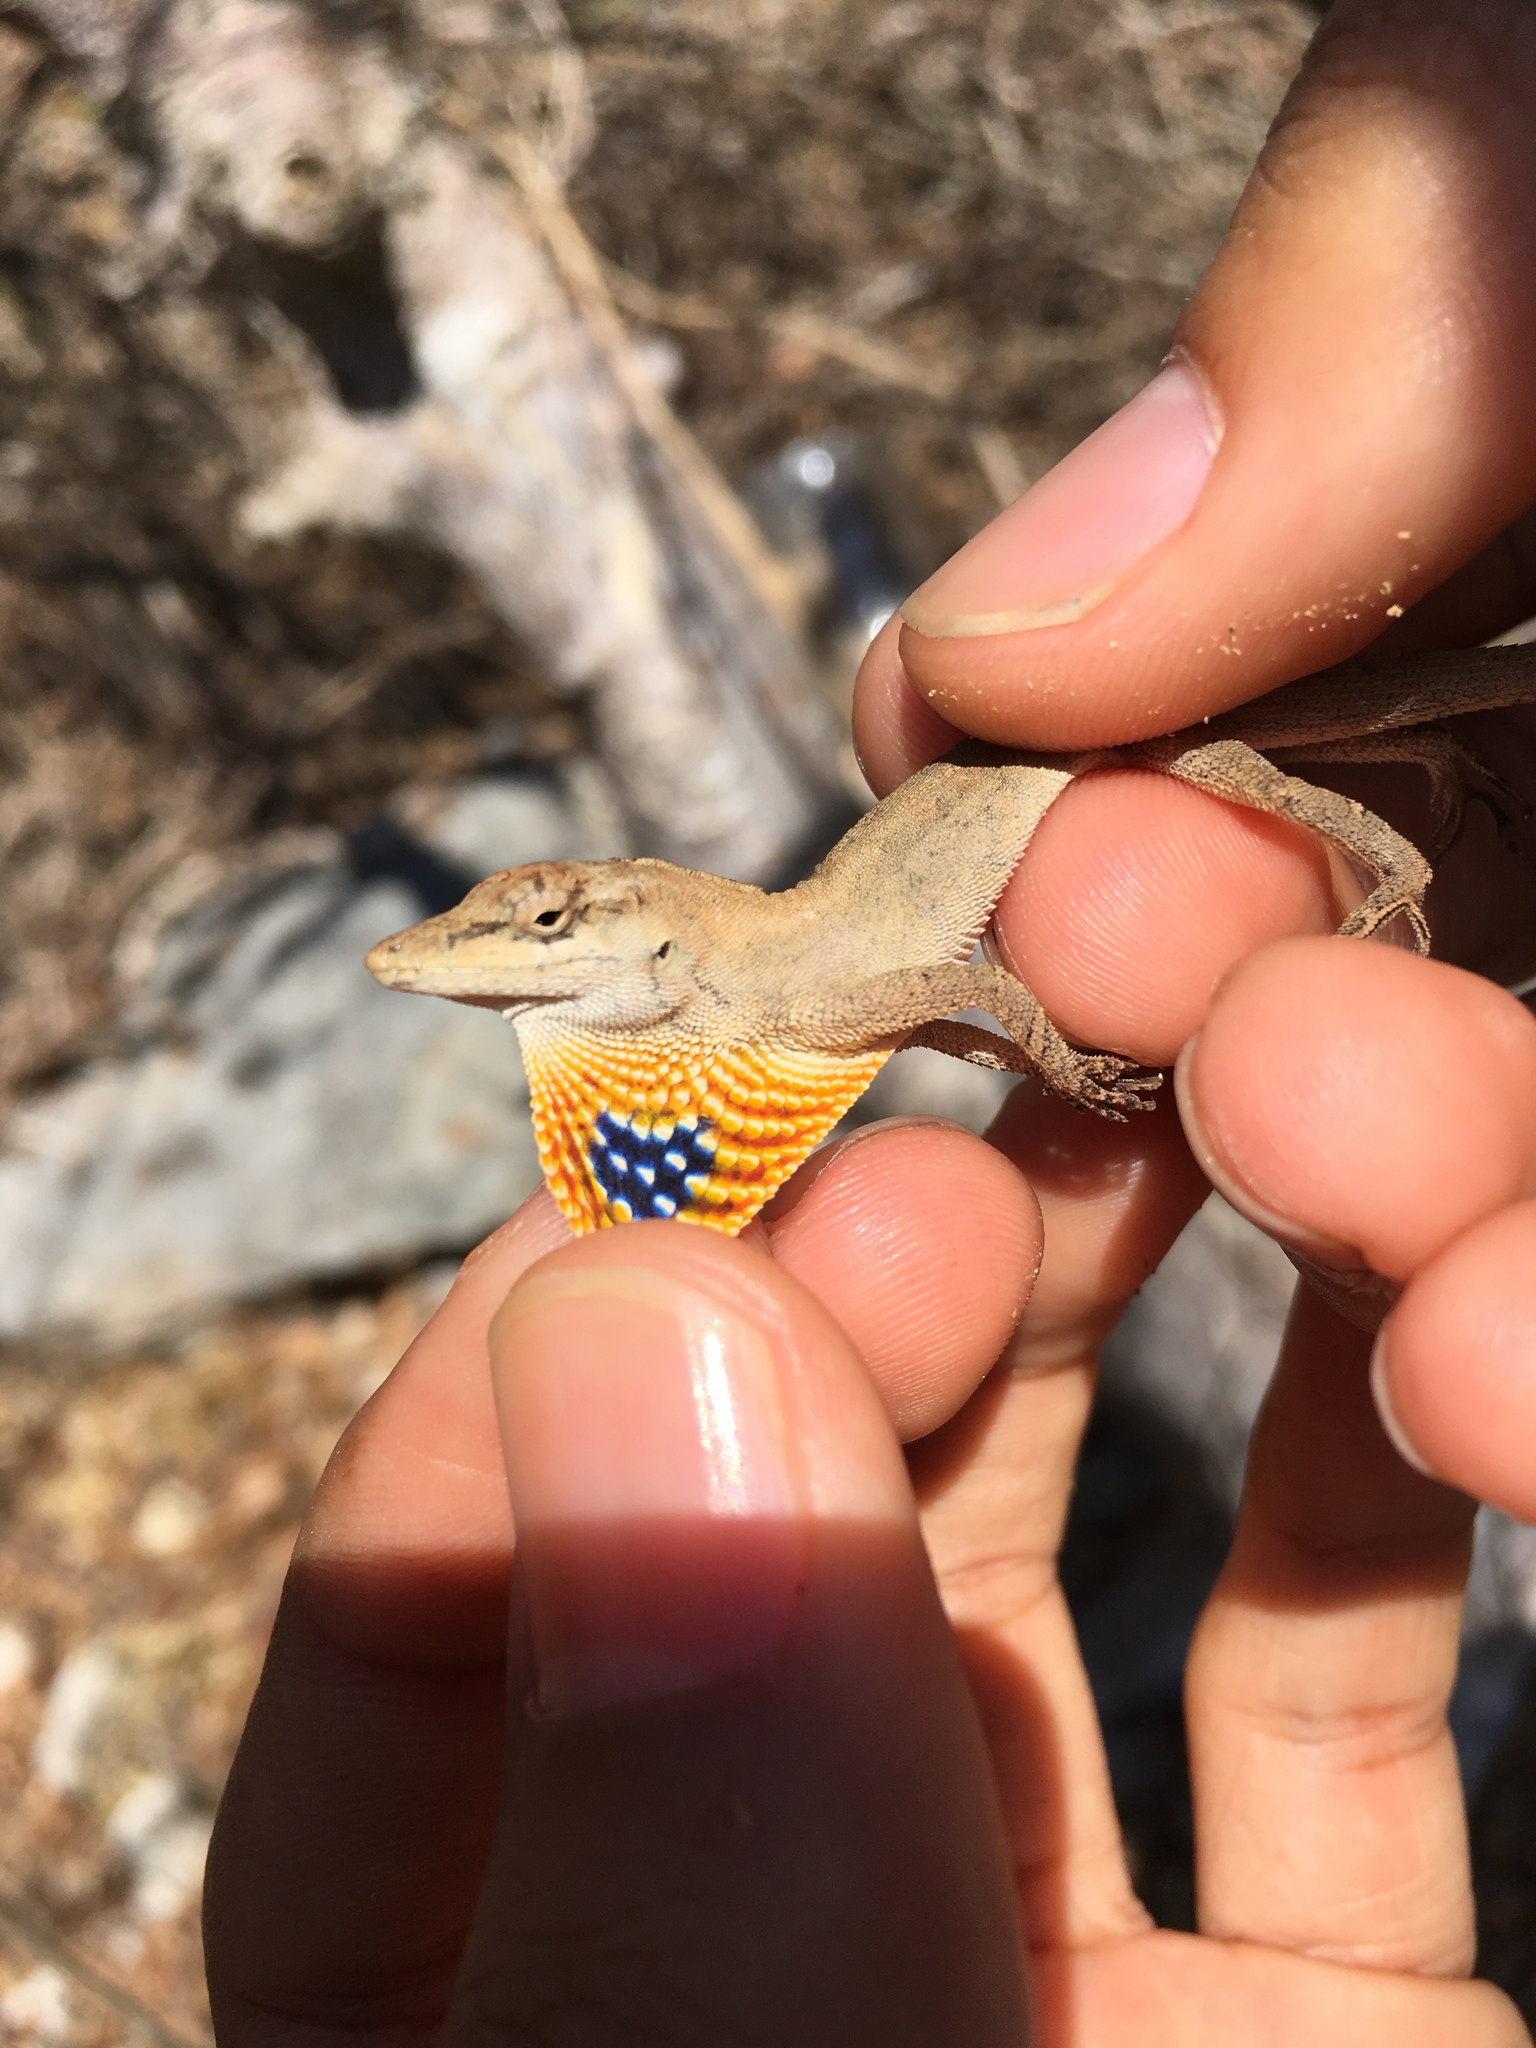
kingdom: Animalia
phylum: Chordata
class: Squamata
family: Dactyloidae
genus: Anolis
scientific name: Anolis unilobatus
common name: Blue-spotted fan anole
